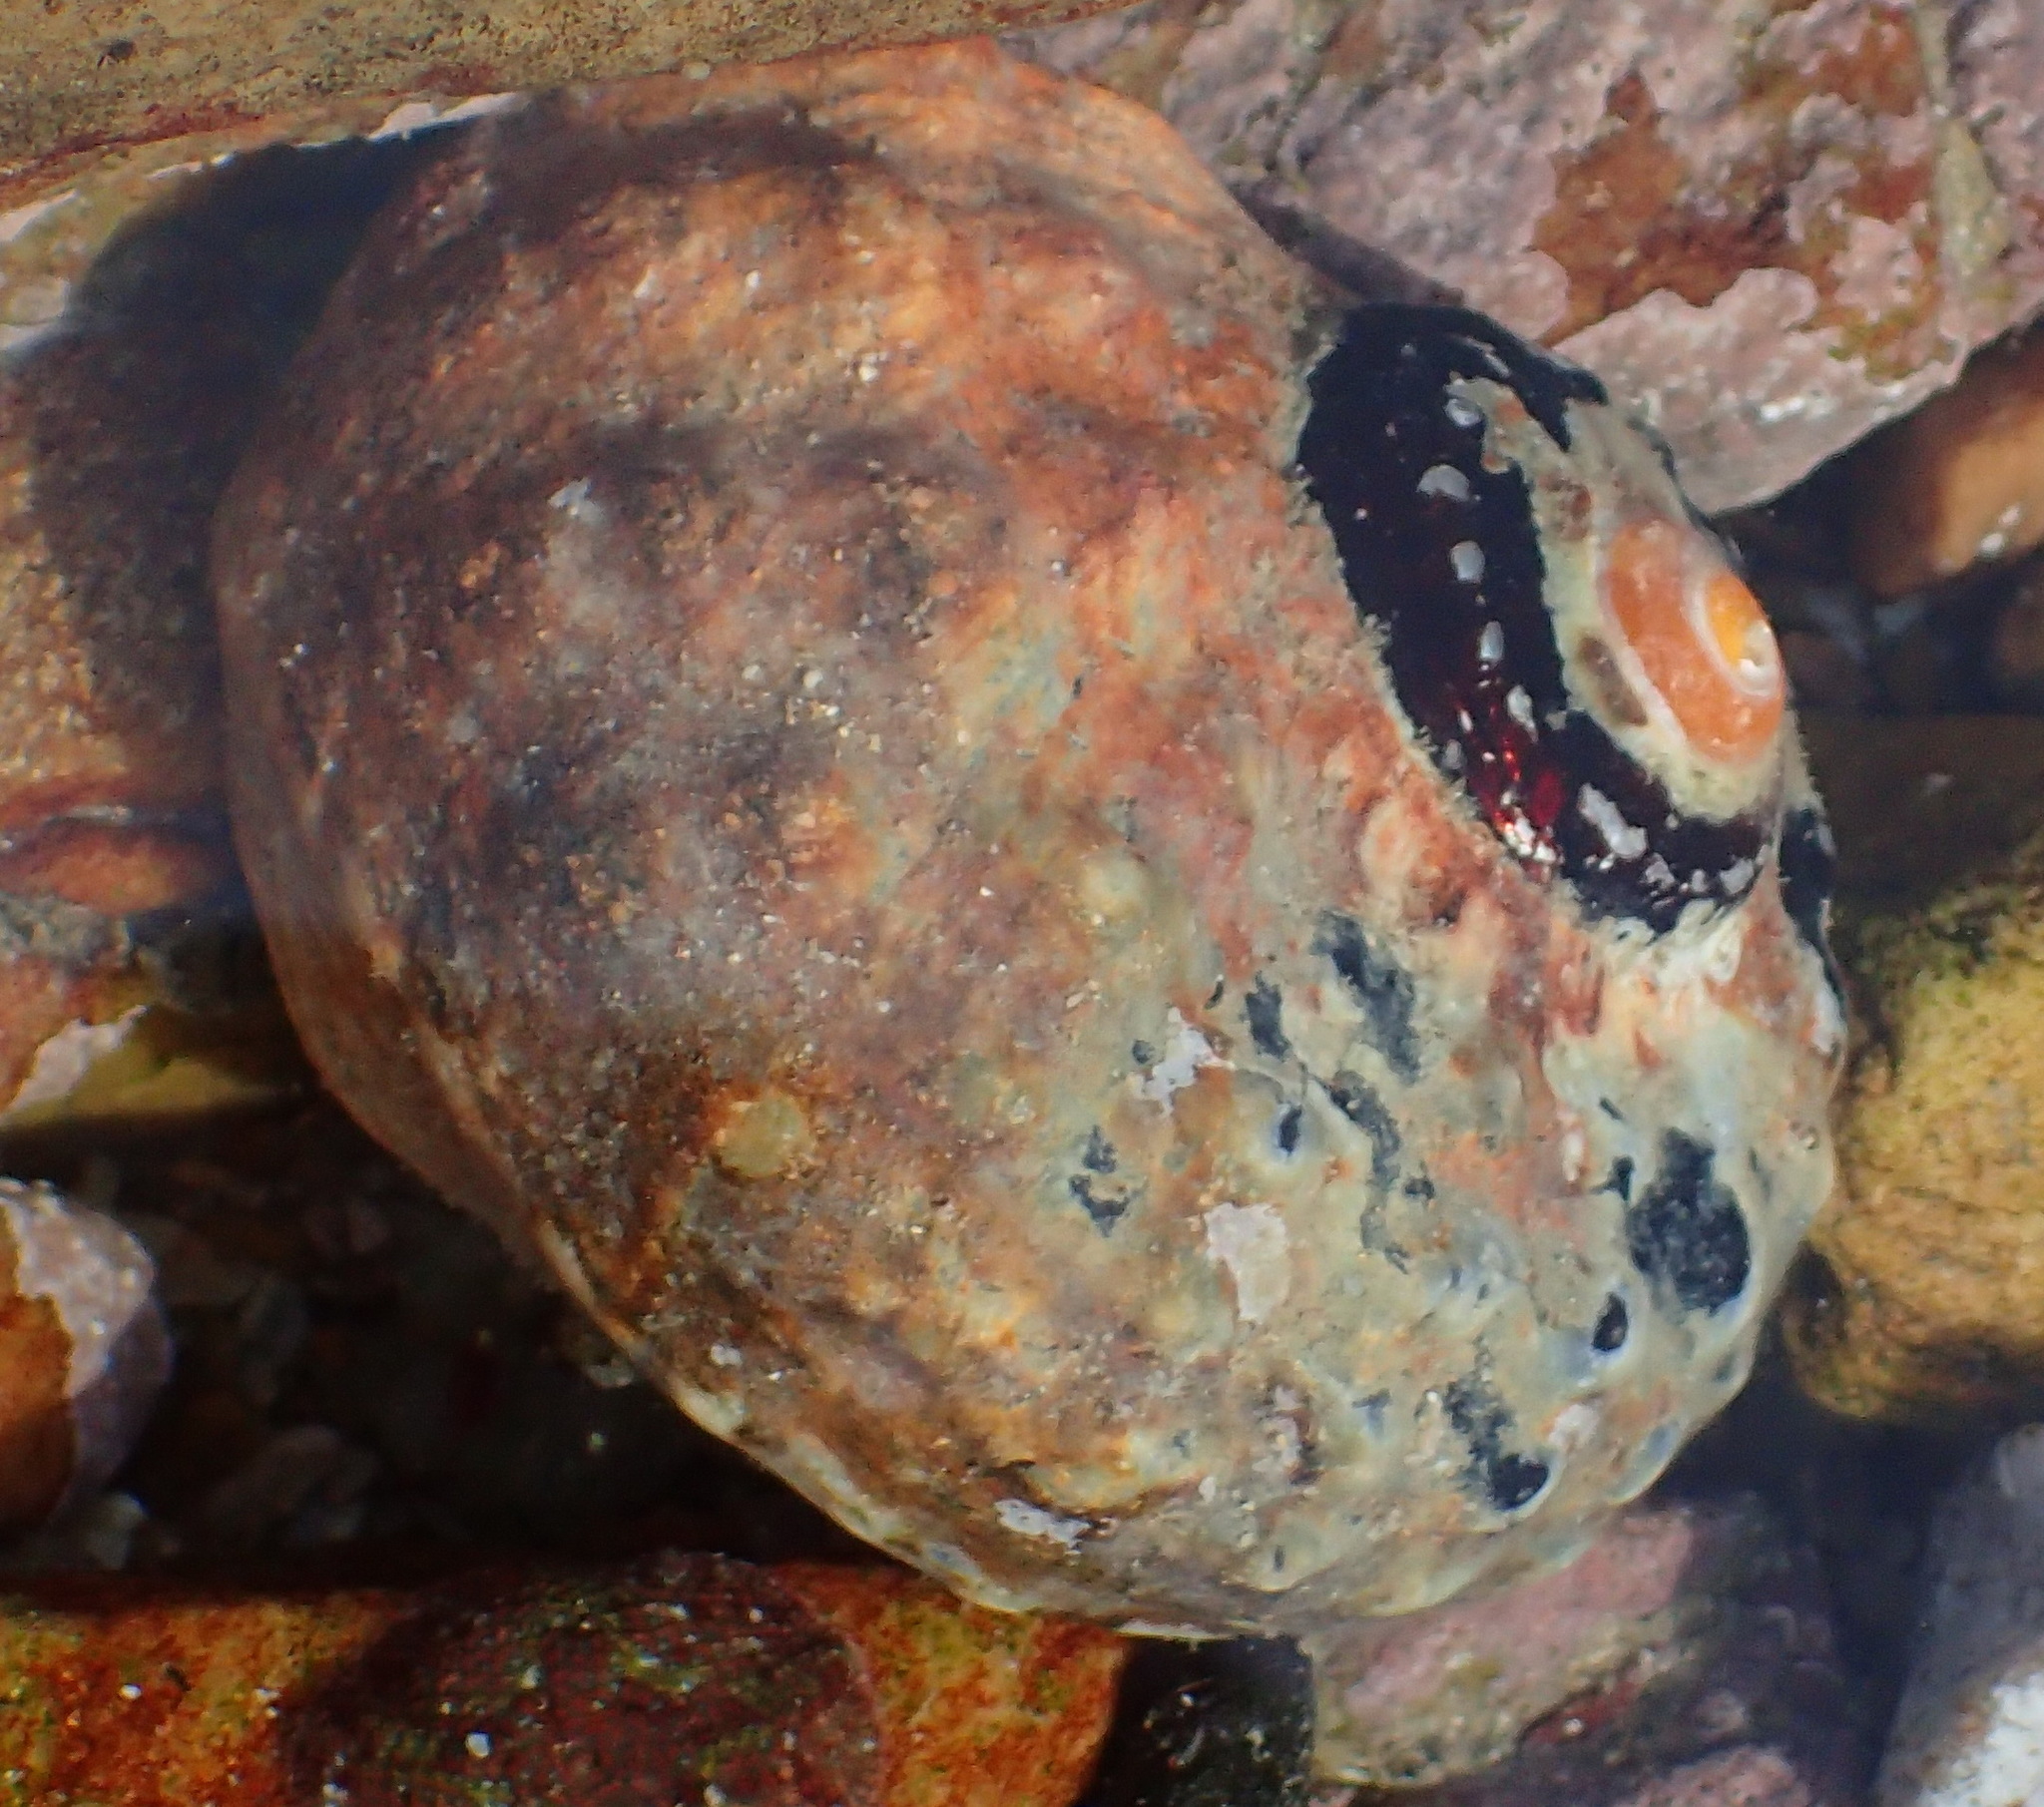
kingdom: Animalia
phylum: Mollusca
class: Gastropoda
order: Trochida
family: Turbinidae
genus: Turbo
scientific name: Turbo sarmaticus
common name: South african turban
